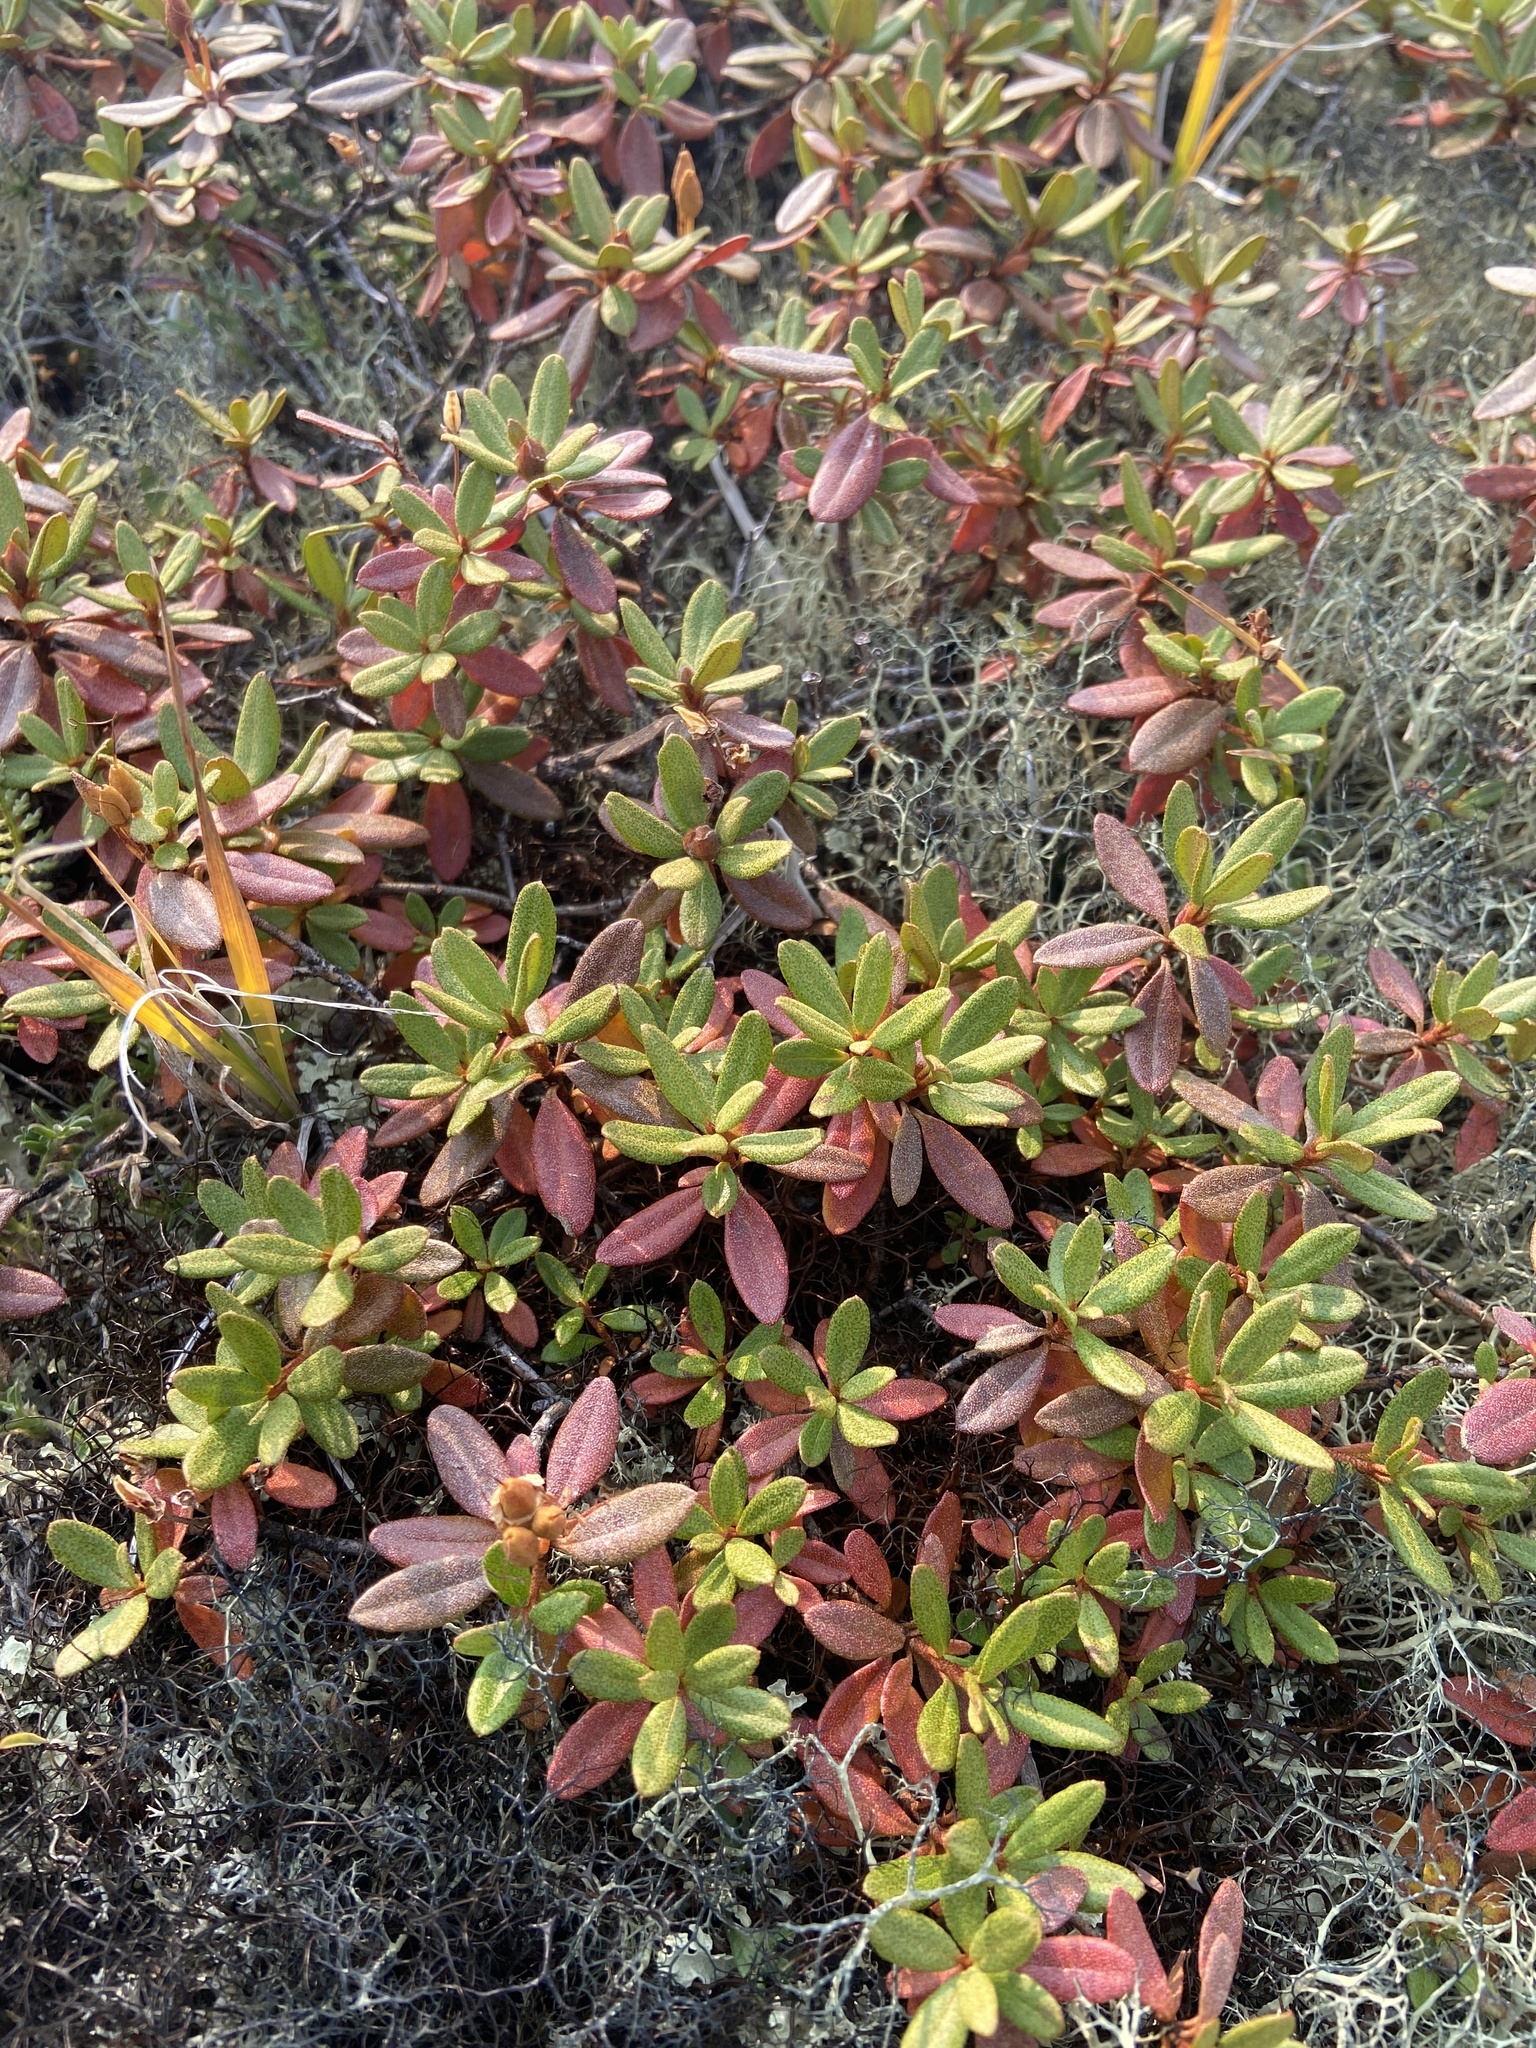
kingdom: Plantae
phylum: Tracheophyta
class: Magnoliopsida
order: Ericales
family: Ericaceae
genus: Rhododendron
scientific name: Rhododendron parvifolium
